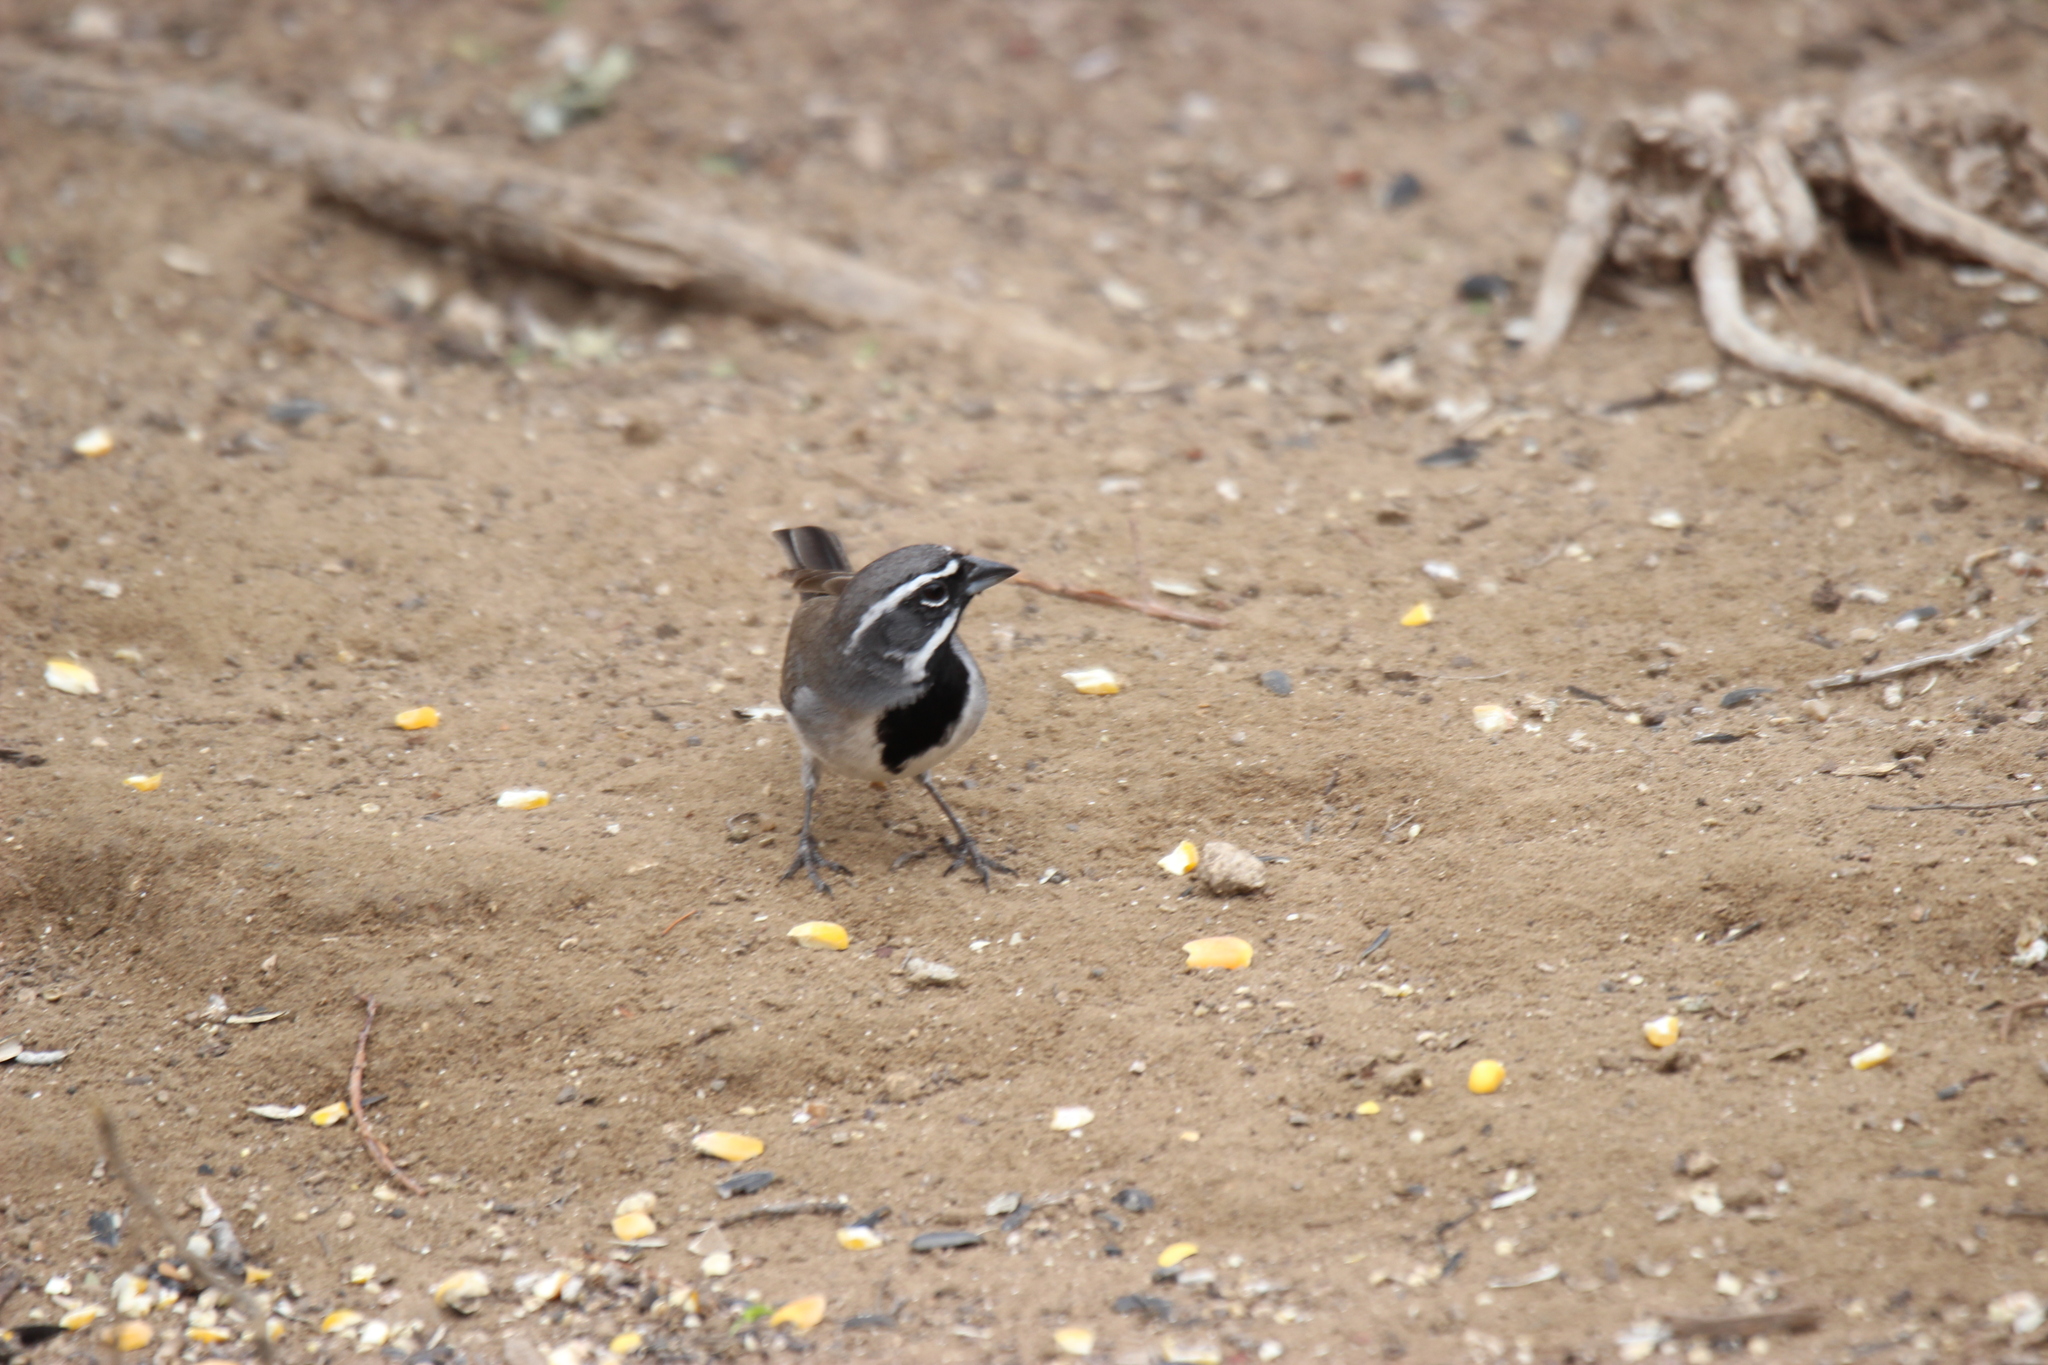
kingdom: Animalia
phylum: Chordata
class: Aves
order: Passeriformes
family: Passerellidae
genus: Amphispiza
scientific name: Amphispiza bilineata
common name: Black-throated sparrow
